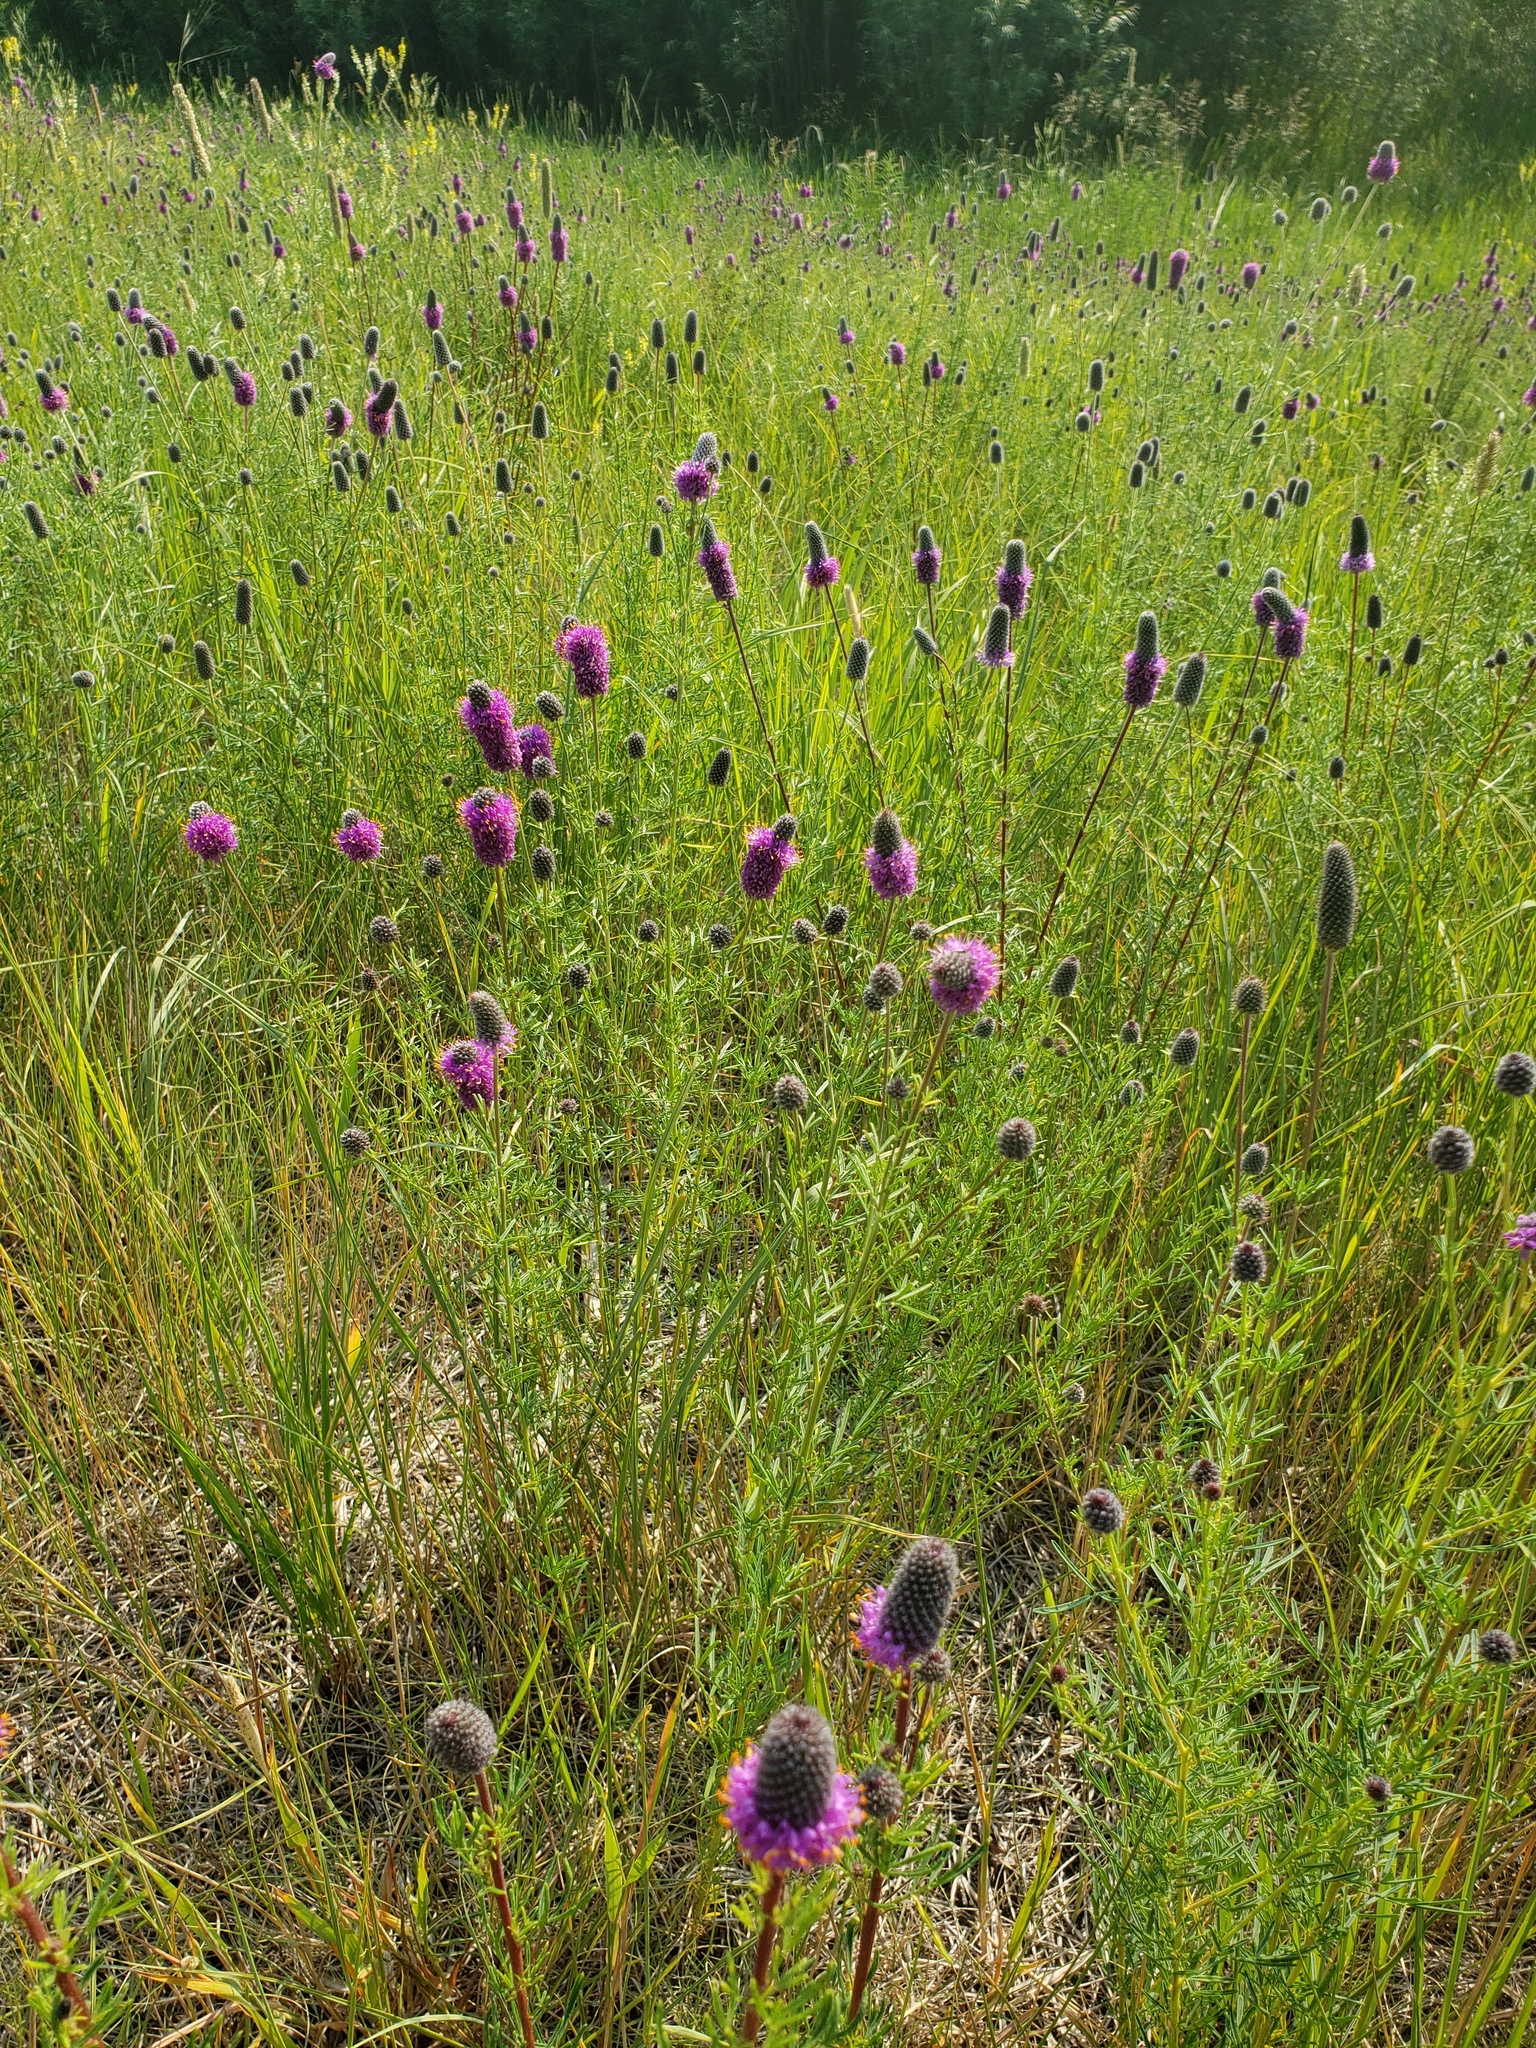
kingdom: Plantae
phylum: Tracheophyta
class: Magnoliopsida
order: Fabales
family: Fabaceae
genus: Dalea
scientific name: Dalea purpurea
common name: Purple prairie-clover
